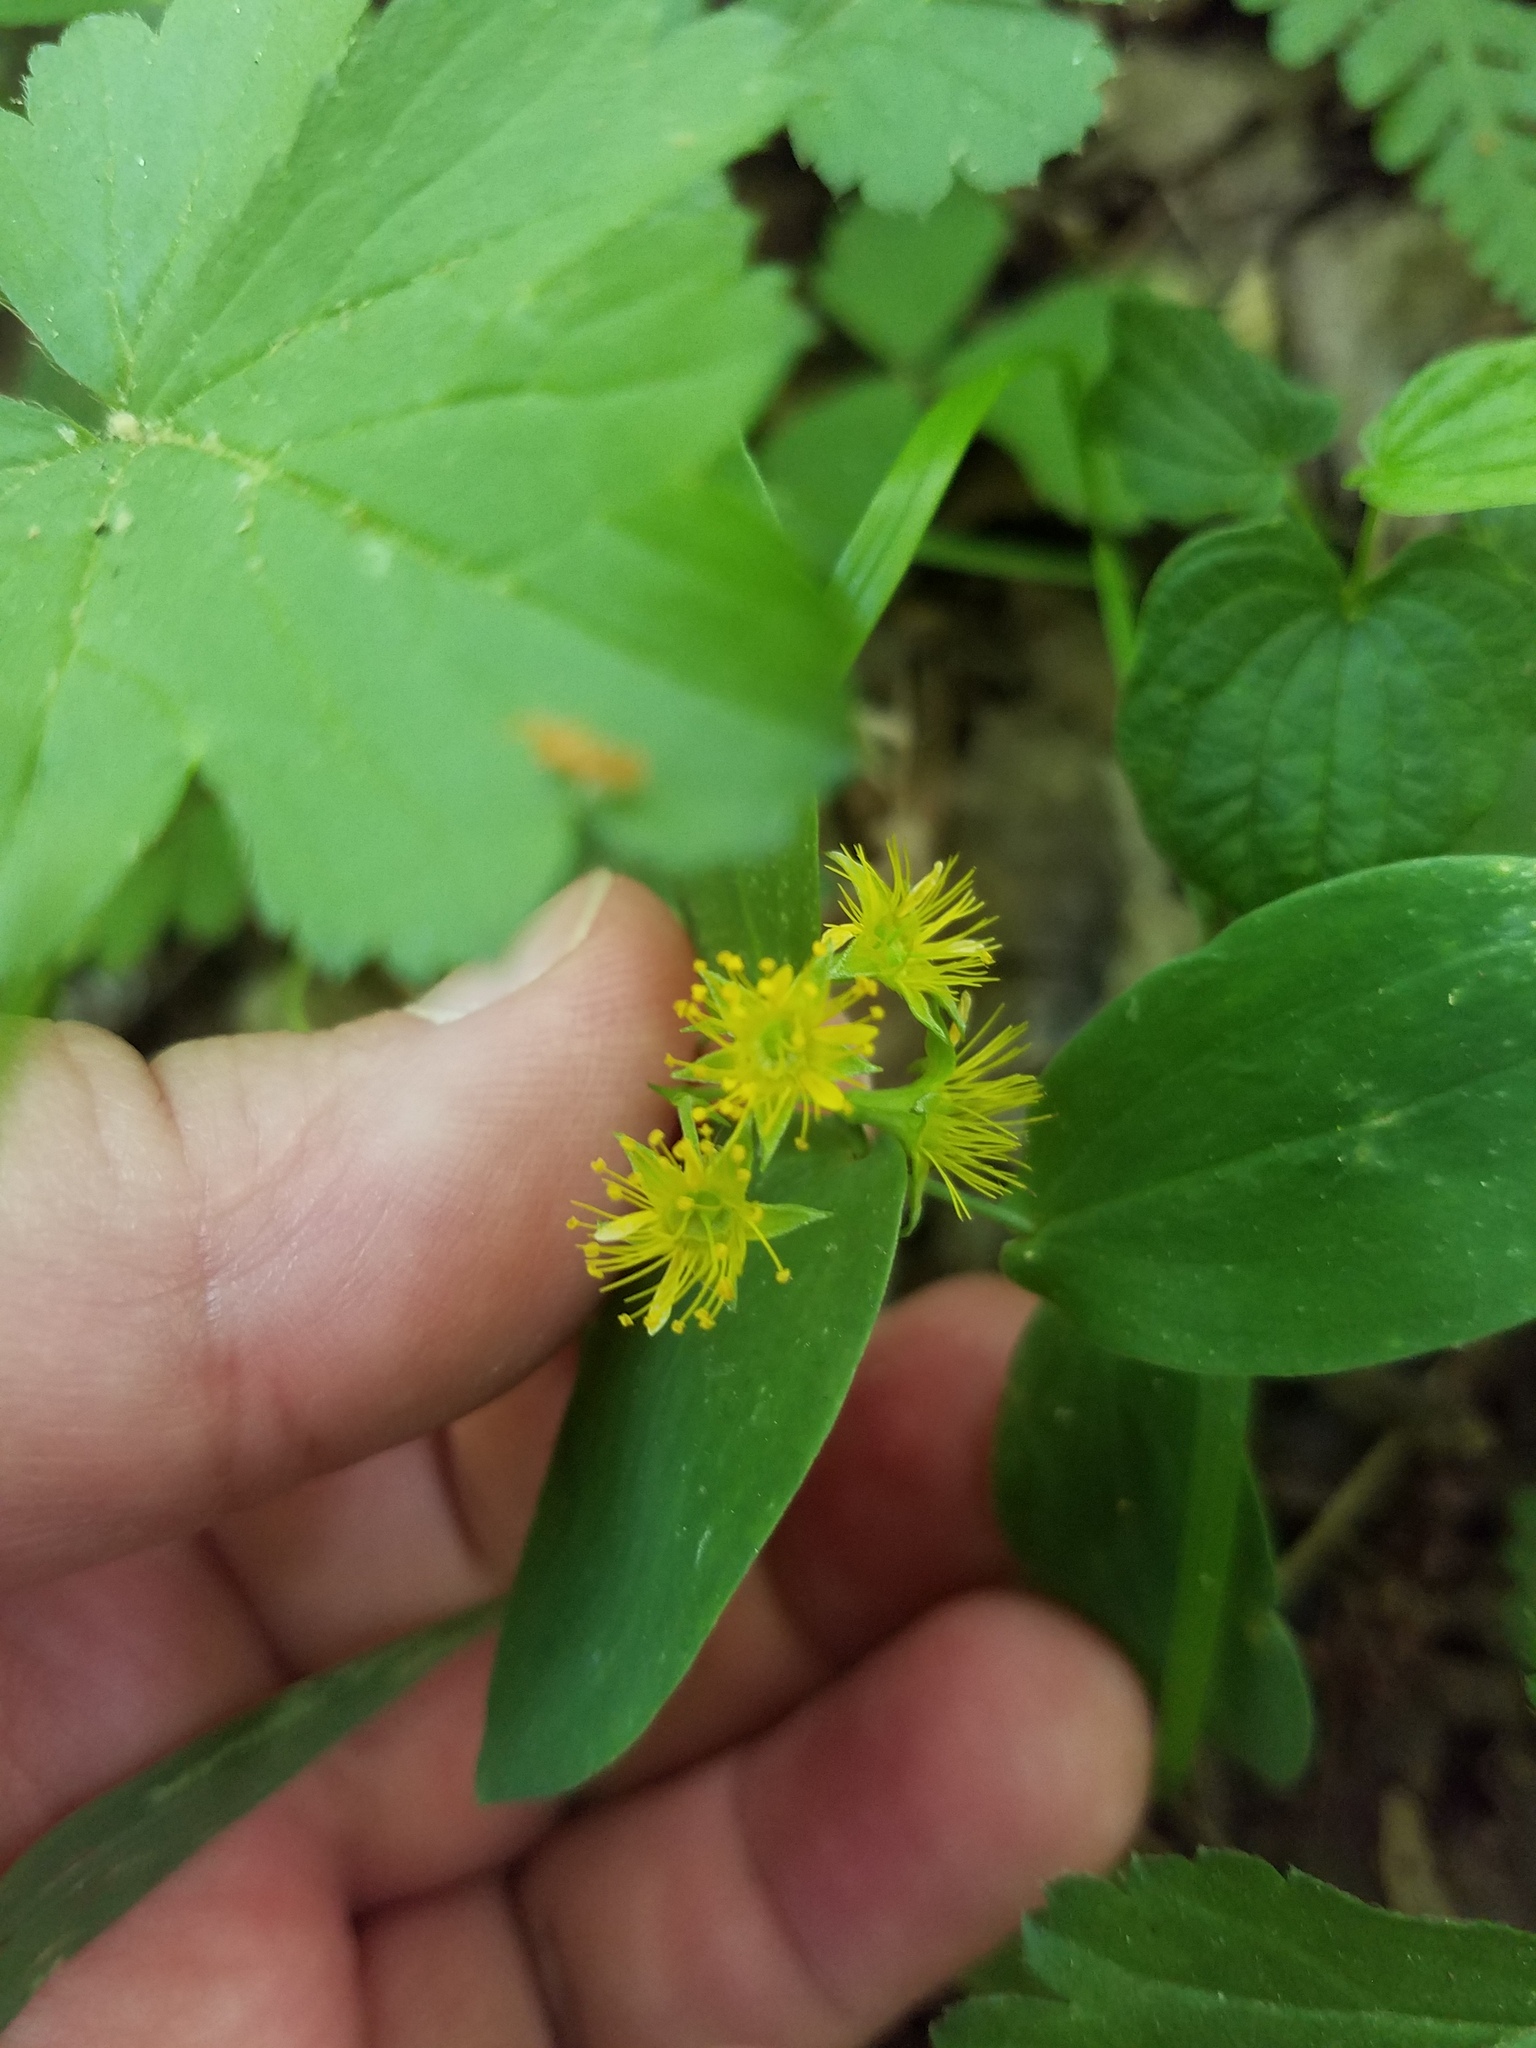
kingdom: Plantae
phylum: Tracheophyta
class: Magnoliopsida
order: Rosales
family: Rosaceae
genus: Geum
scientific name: Geum fragarioides
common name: Appalachian barren strawberry
